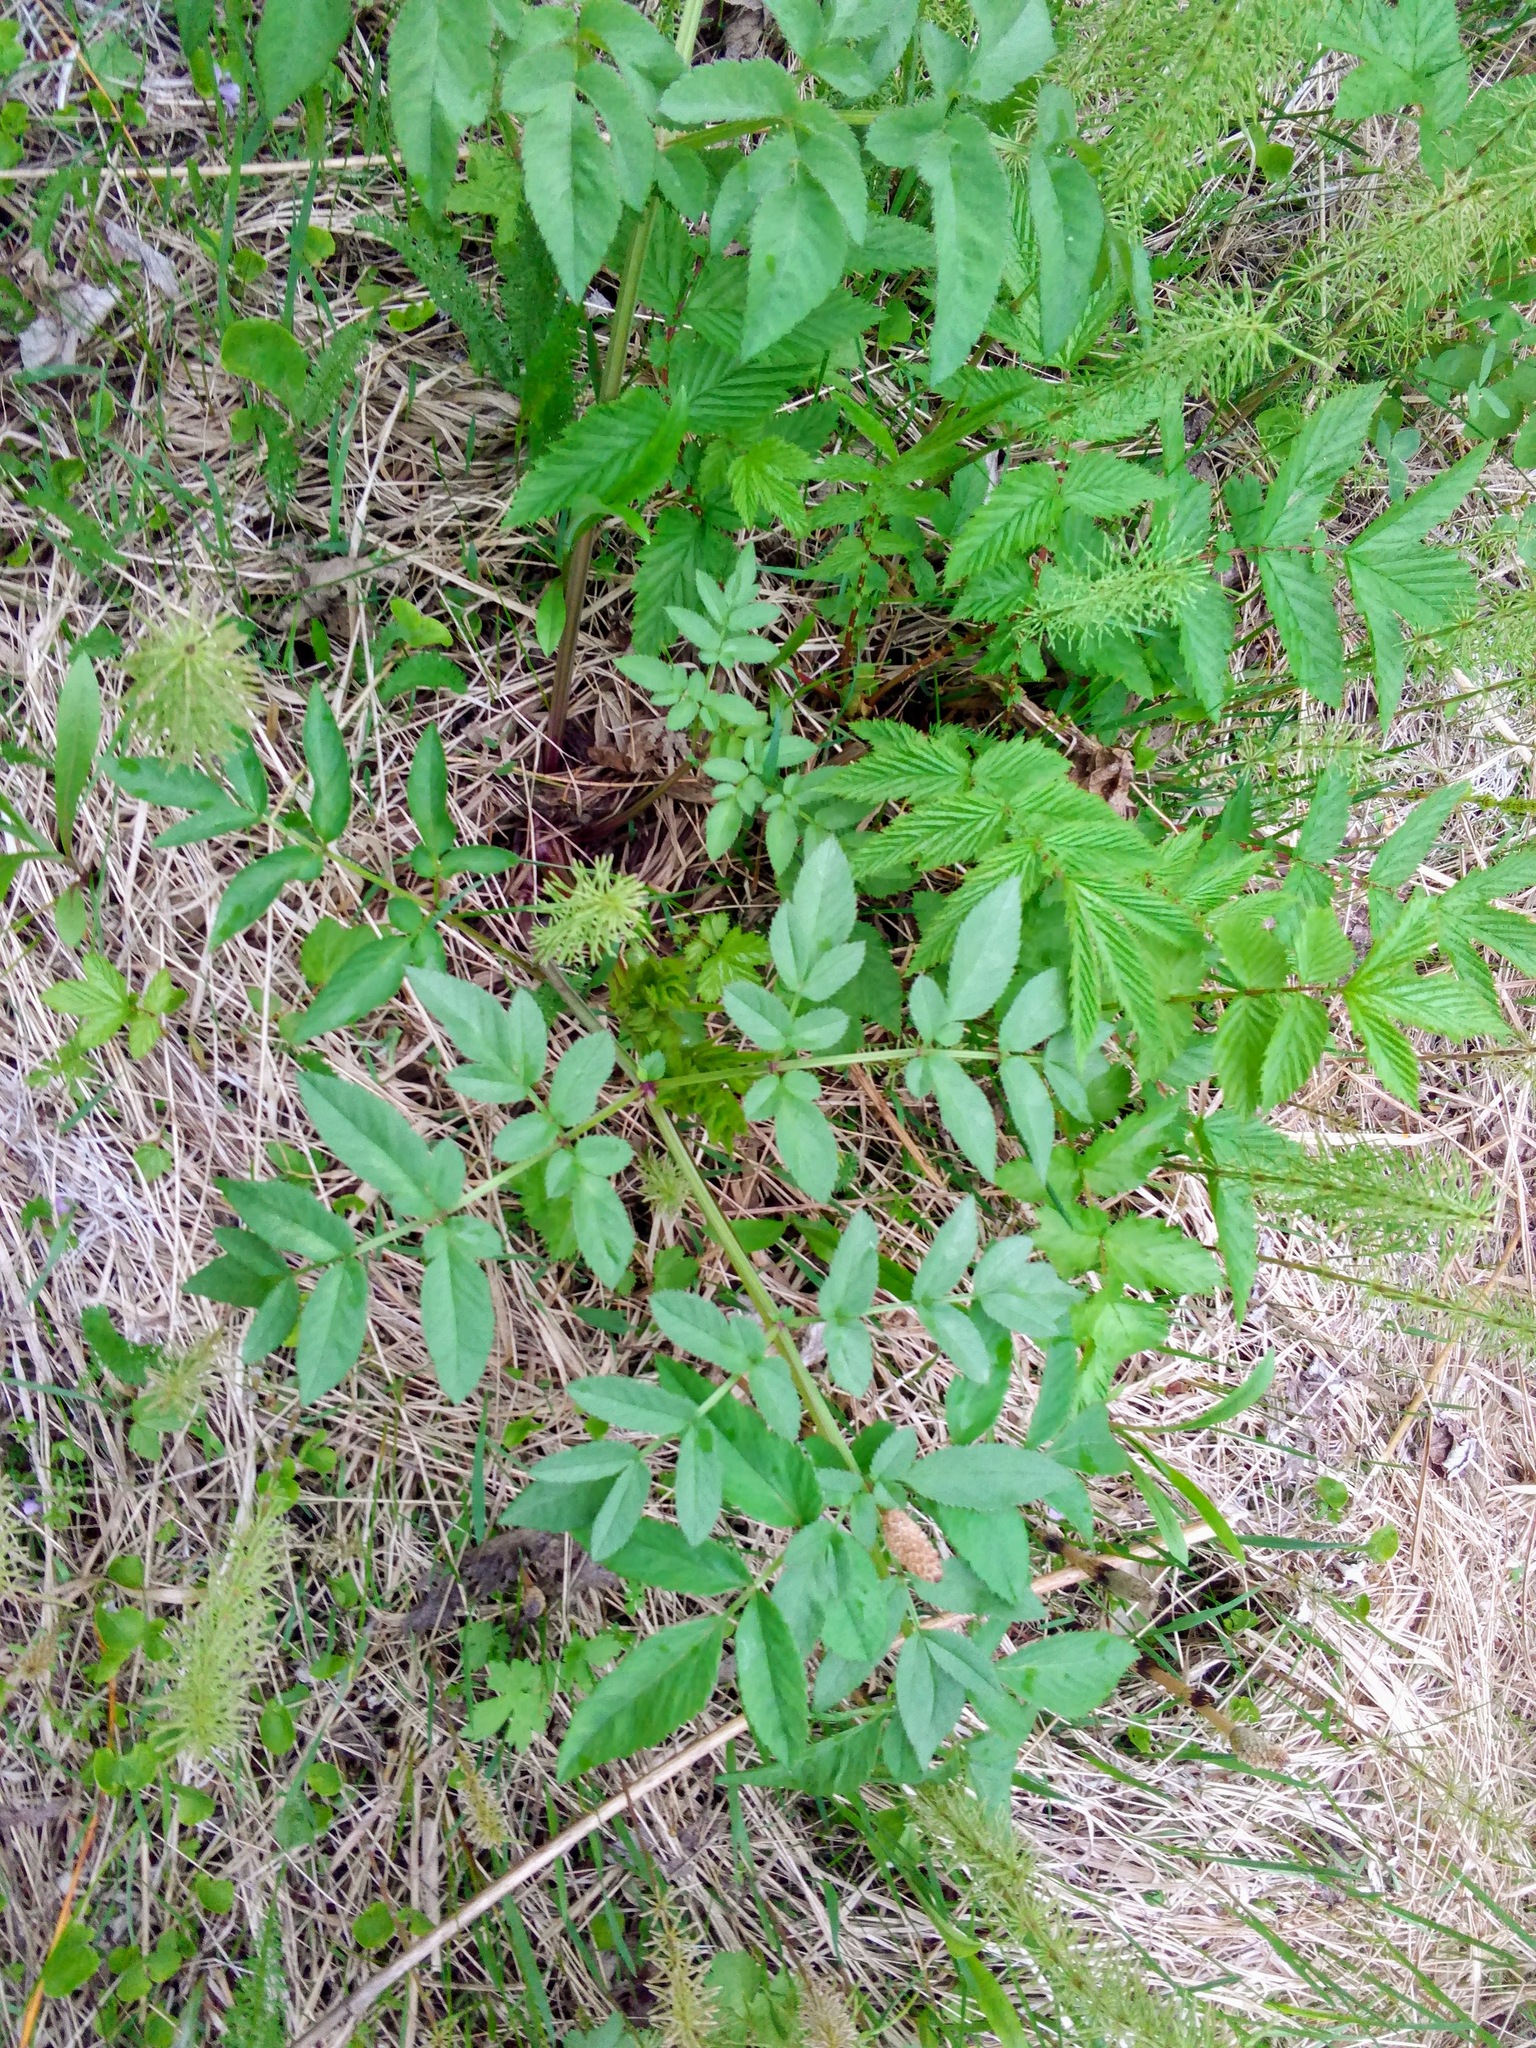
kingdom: Plantae
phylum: Tracheophyta
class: Magnoliopsida
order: Apiales
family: Apiaceae
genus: Angelica
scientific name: Angelica sylvestris
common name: Wild angelica
